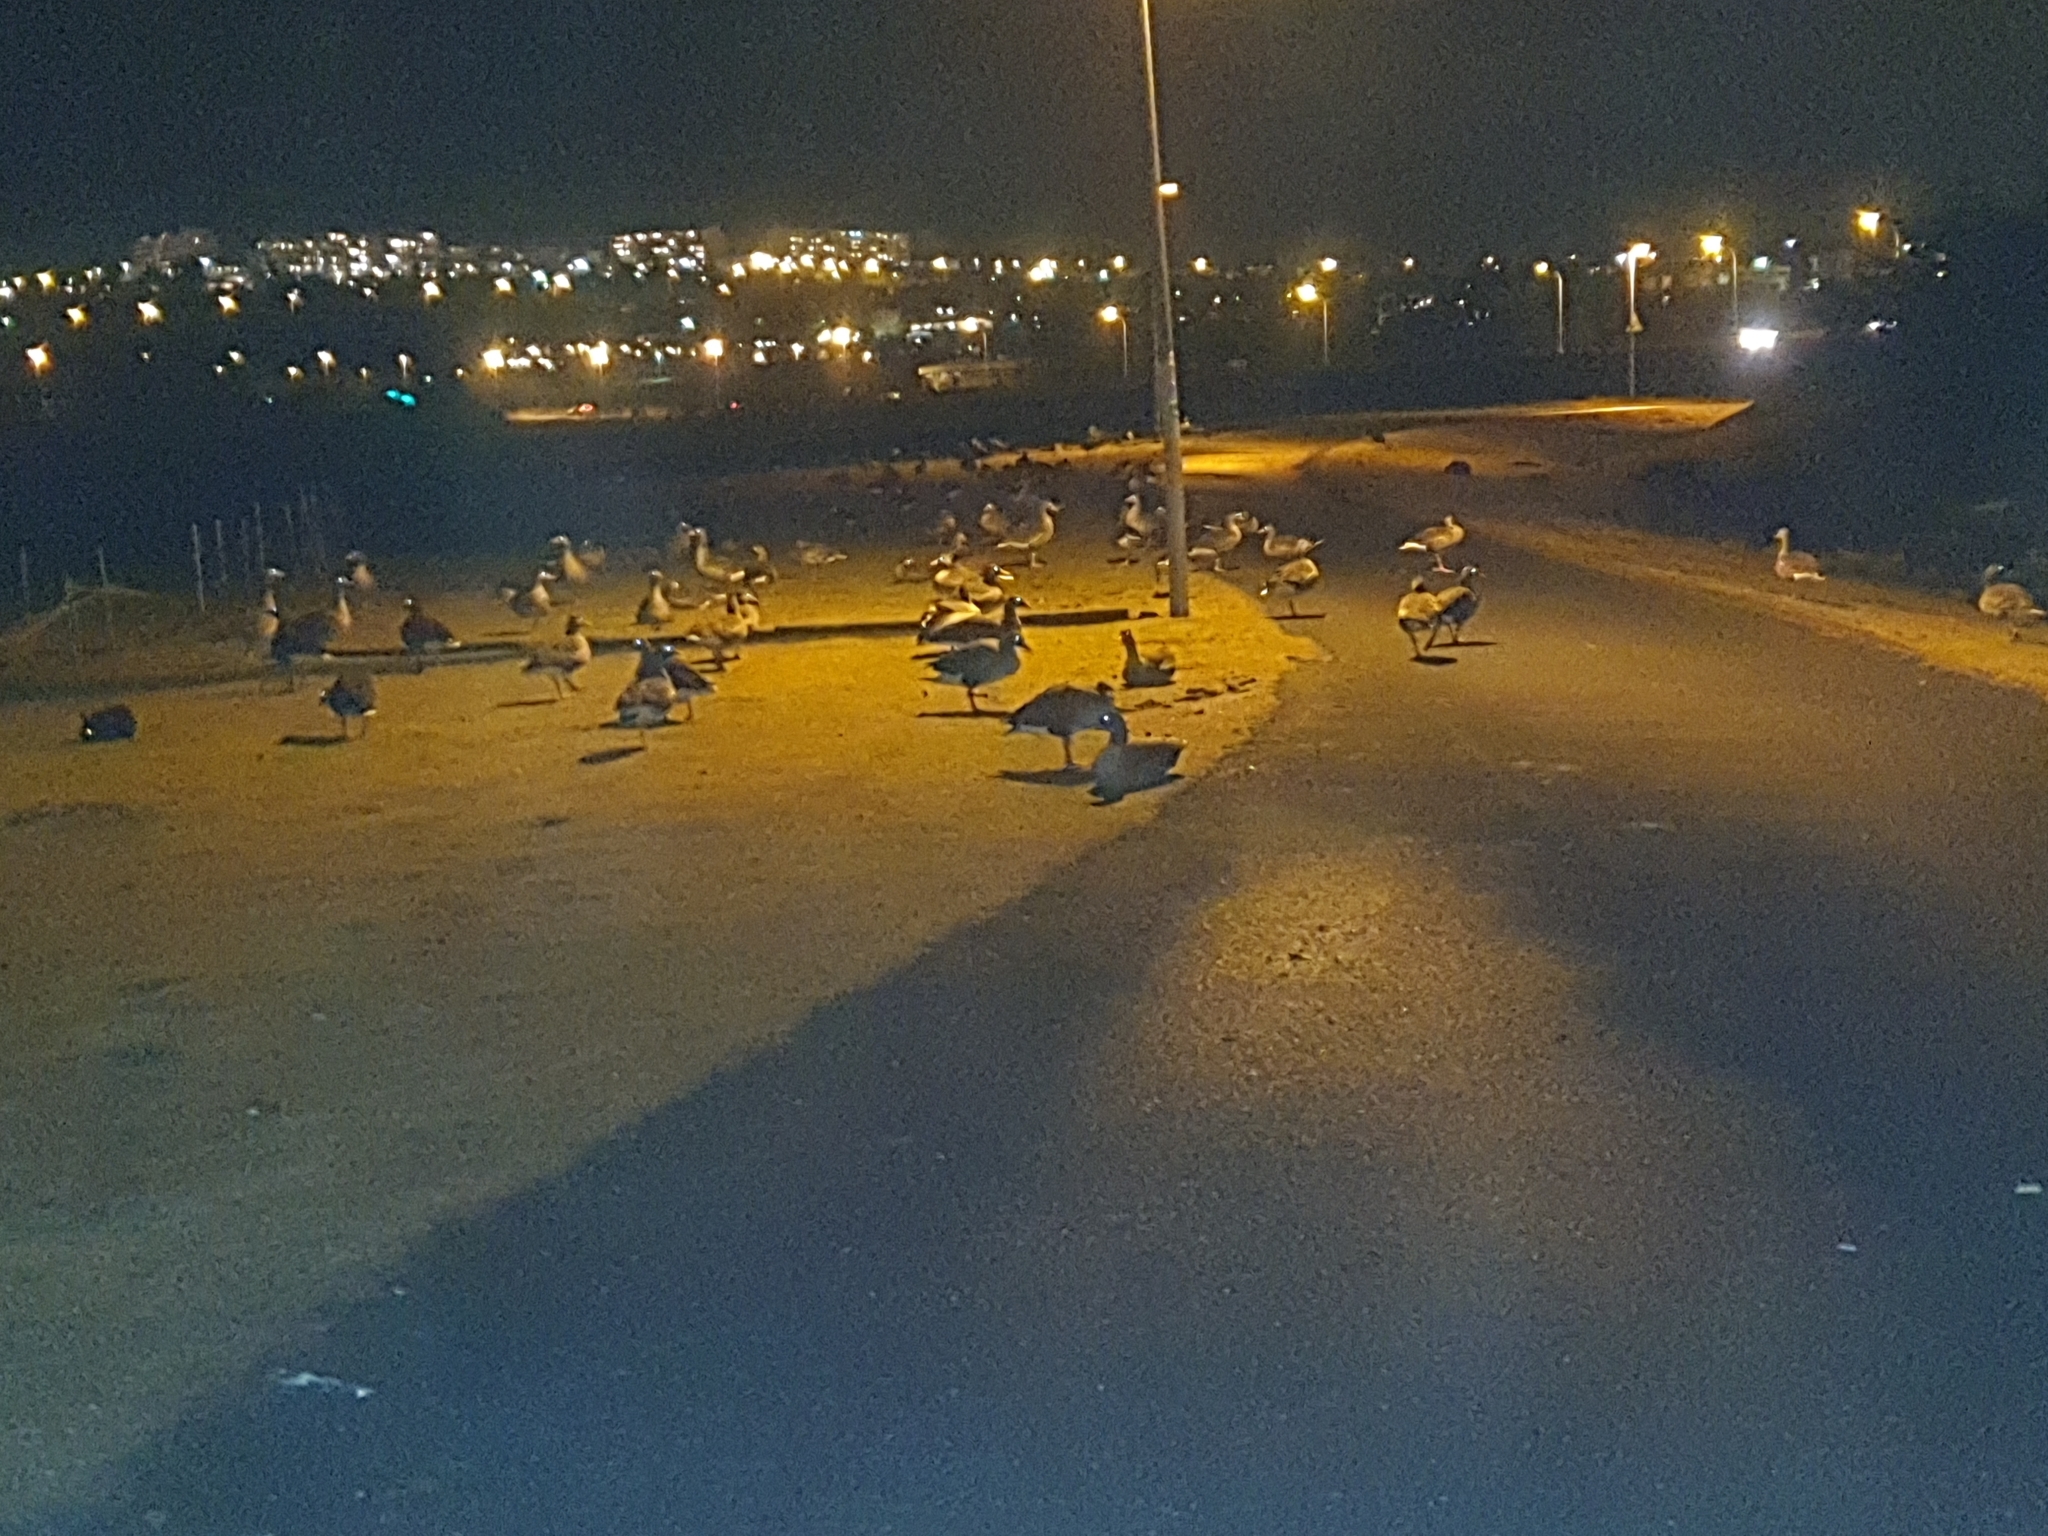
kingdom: Animalia
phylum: Chordata
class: Aves
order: Anseriformes
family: Anatidae
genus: Anser
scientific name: Anser anser
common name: Greylag goose
